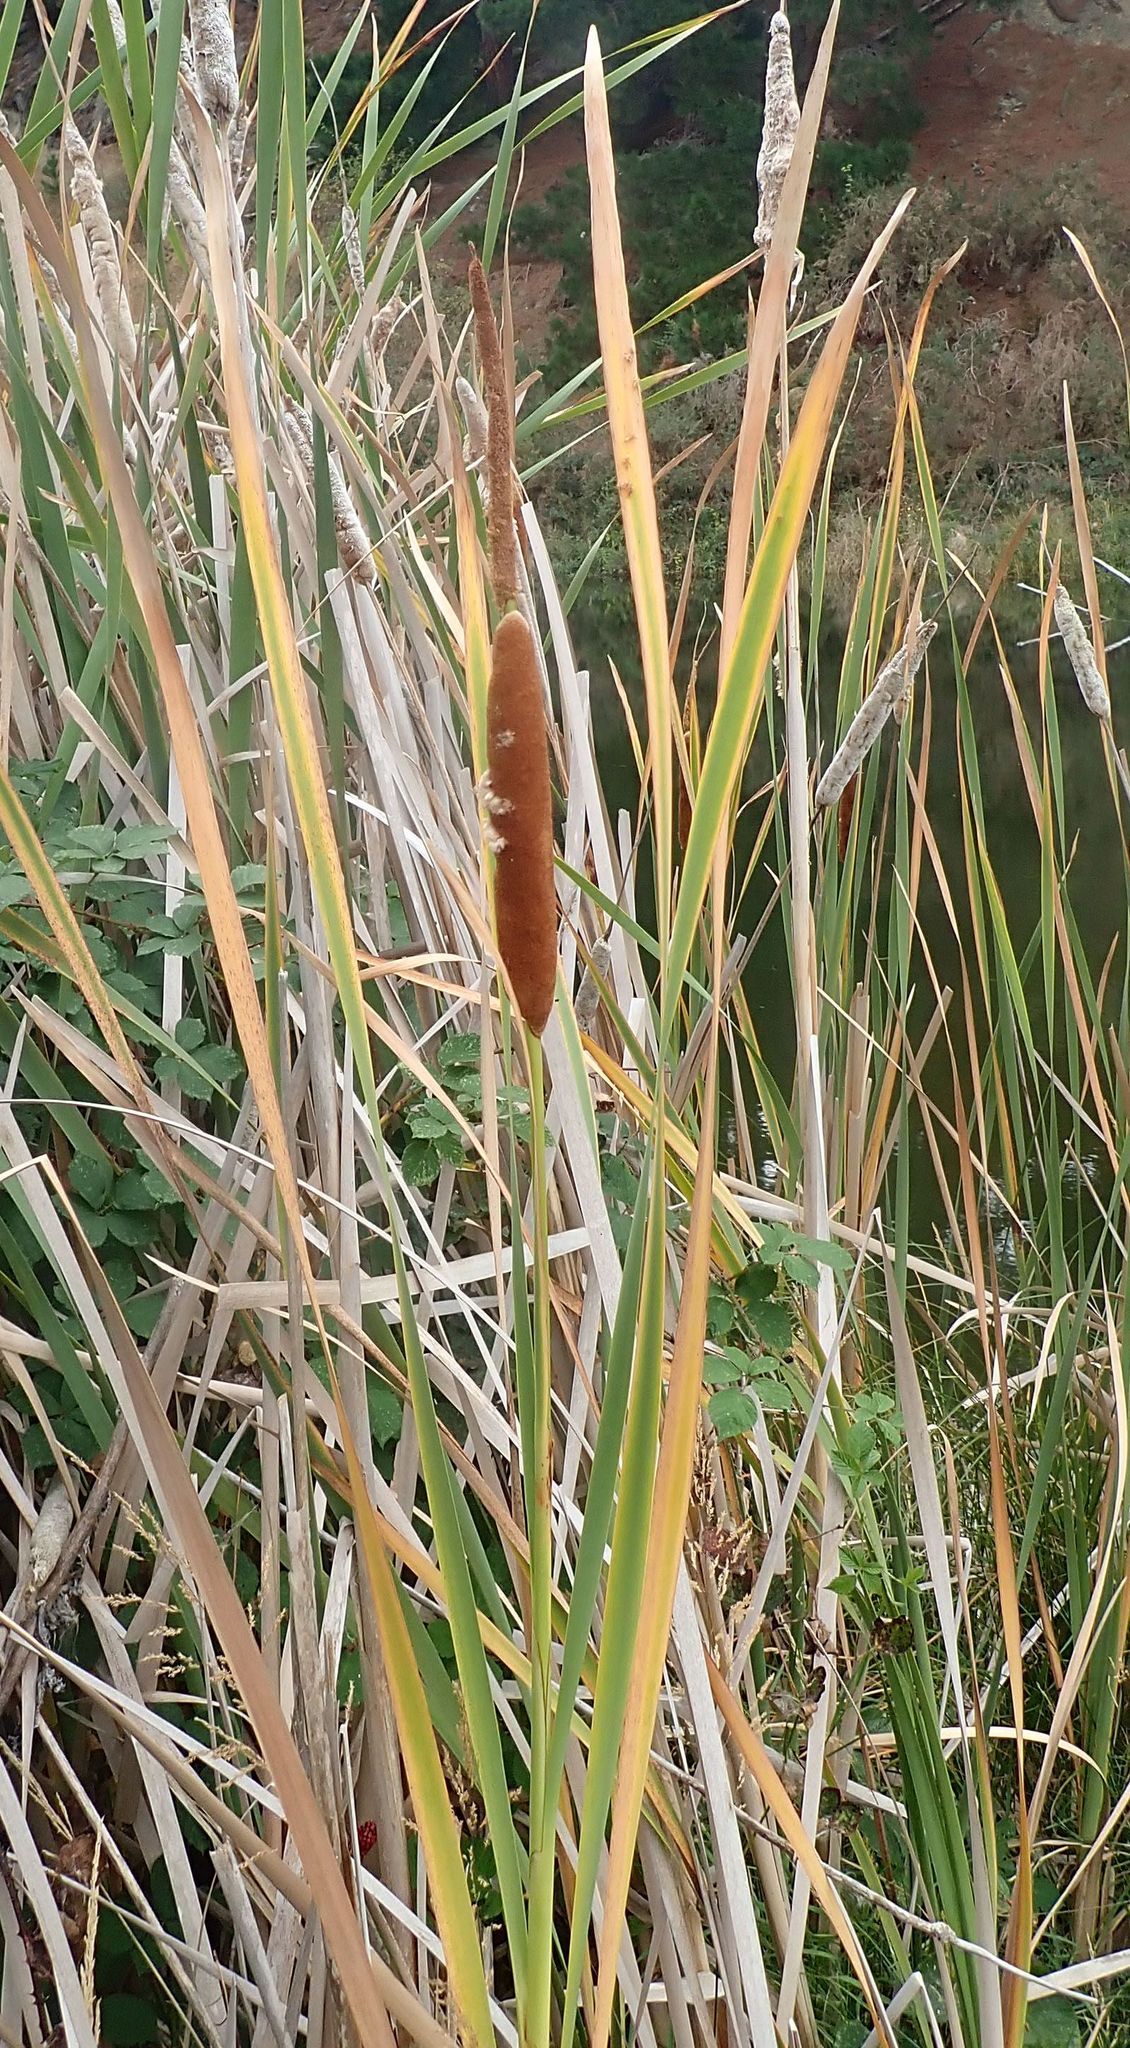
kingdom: Plantae
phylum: Tracheophyta
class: Liliopsida
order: Poales
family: Typhaceae
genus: Typha
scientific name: Typha orientalis
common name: Bullrush
